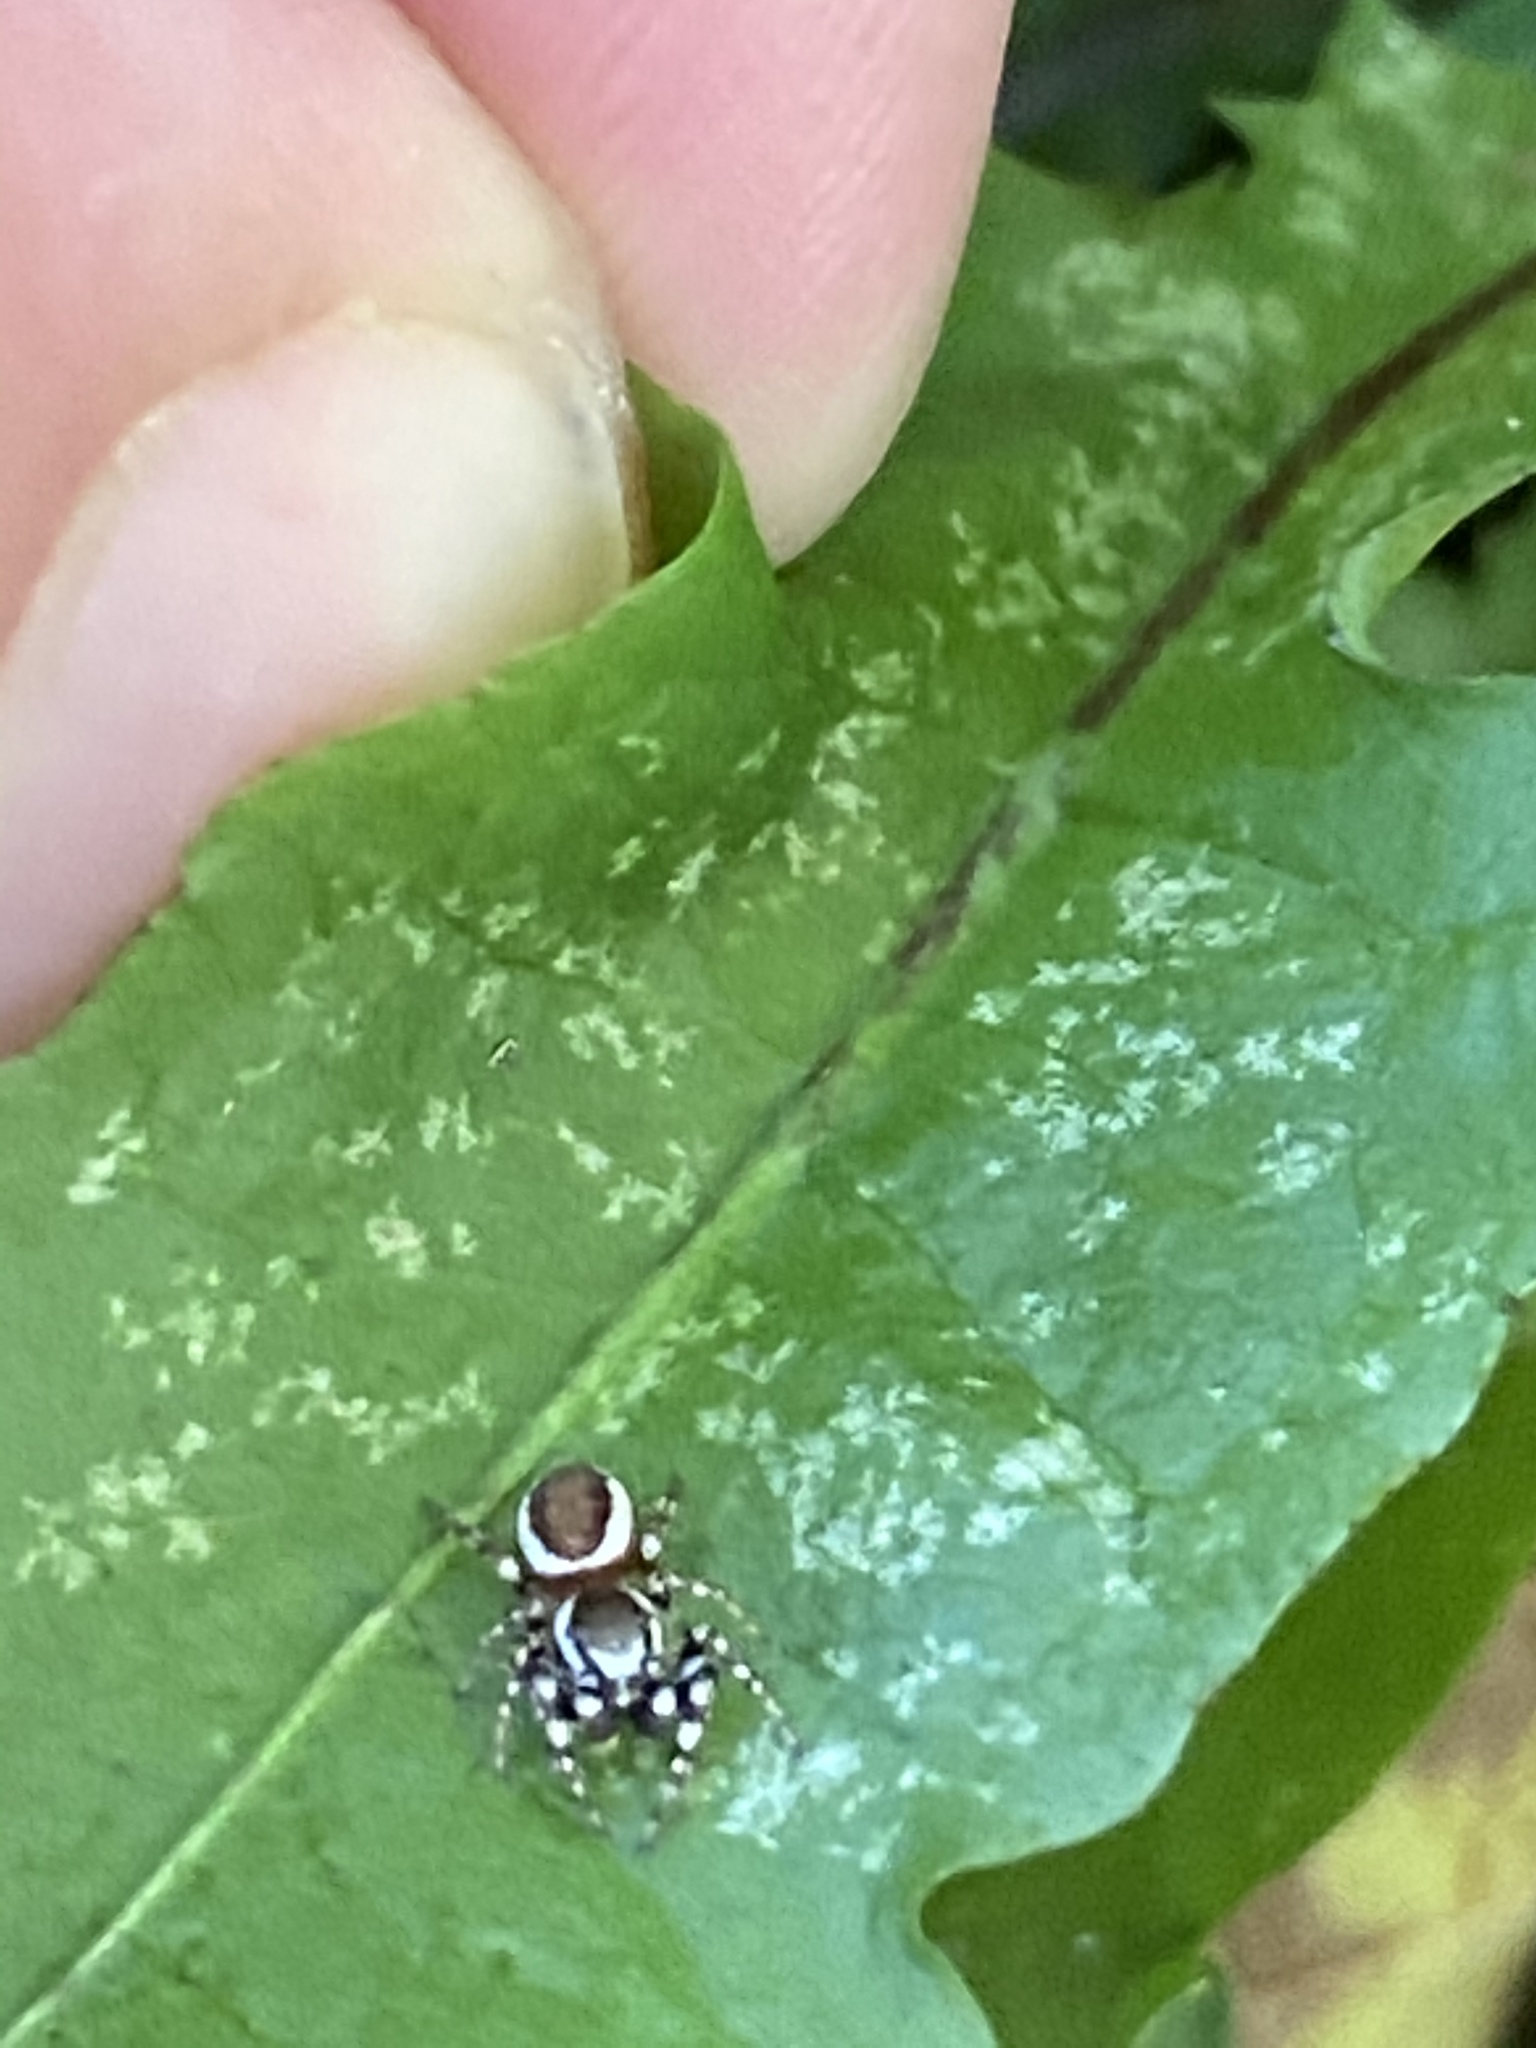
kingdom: Animalia
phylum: Arthropoda
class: Arachnida
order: Araneae
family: Salticidae
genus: Pelegrina
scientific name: Pelegrina proterva
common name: Common white-cheeked jumping spider
